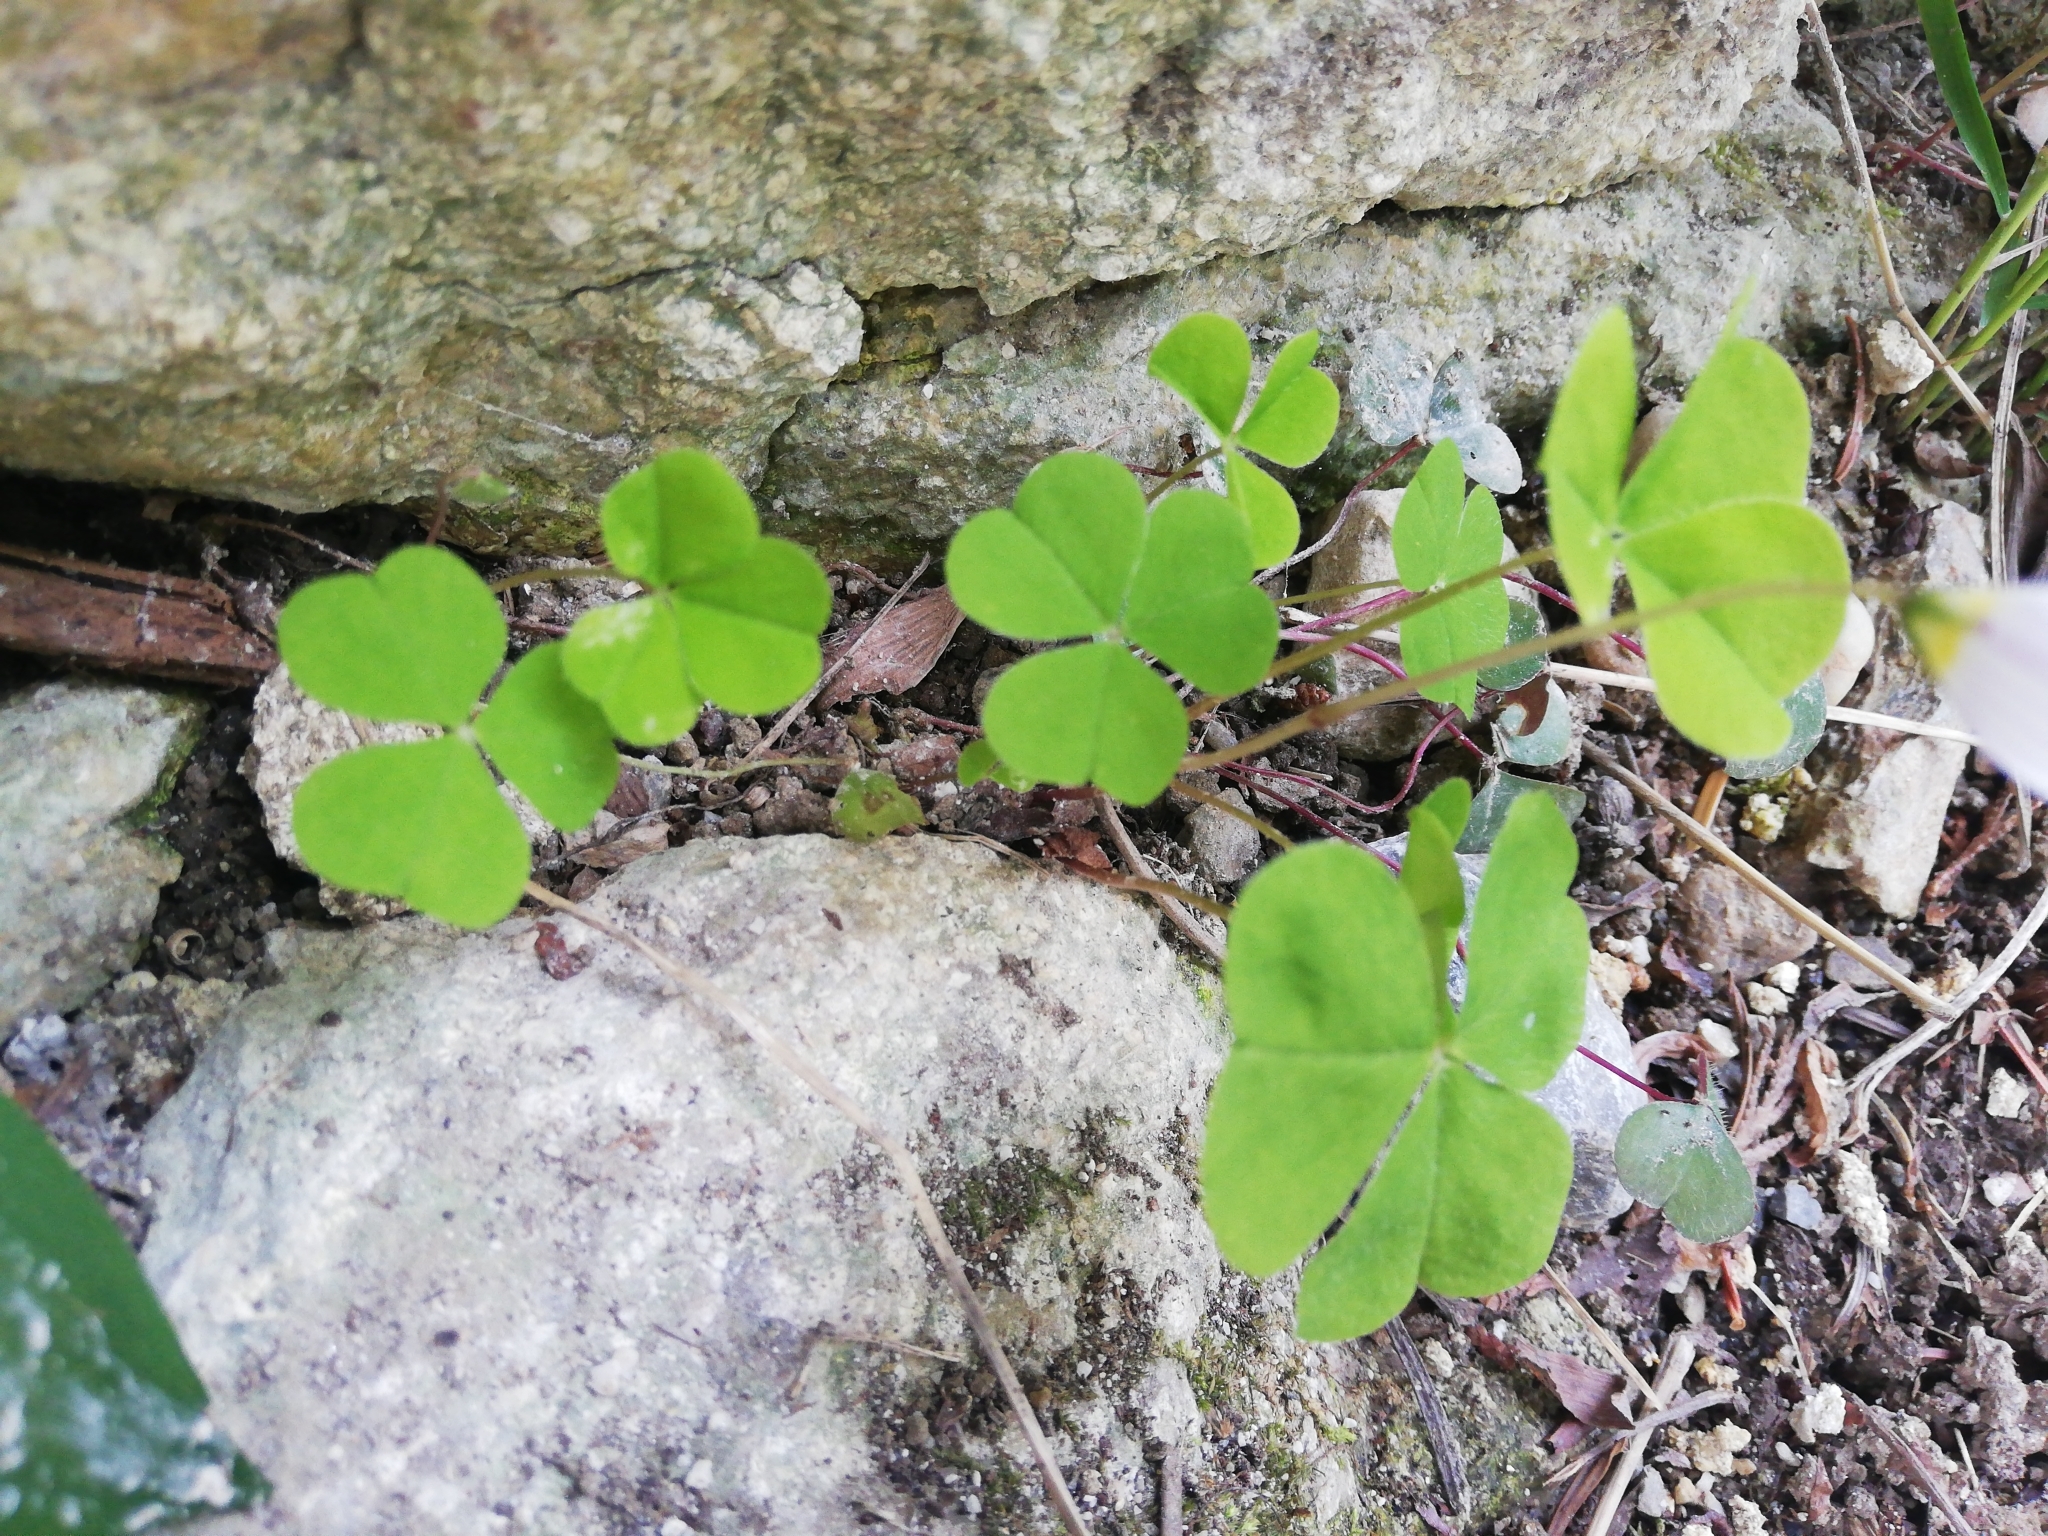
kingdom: Plantae
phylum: Tracheophyta
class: Magnoliopsida
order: Oxalidales
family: Oxalidaceae
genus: Oxalis
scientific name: Oxalis acetosella
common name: Wood-sorrel
